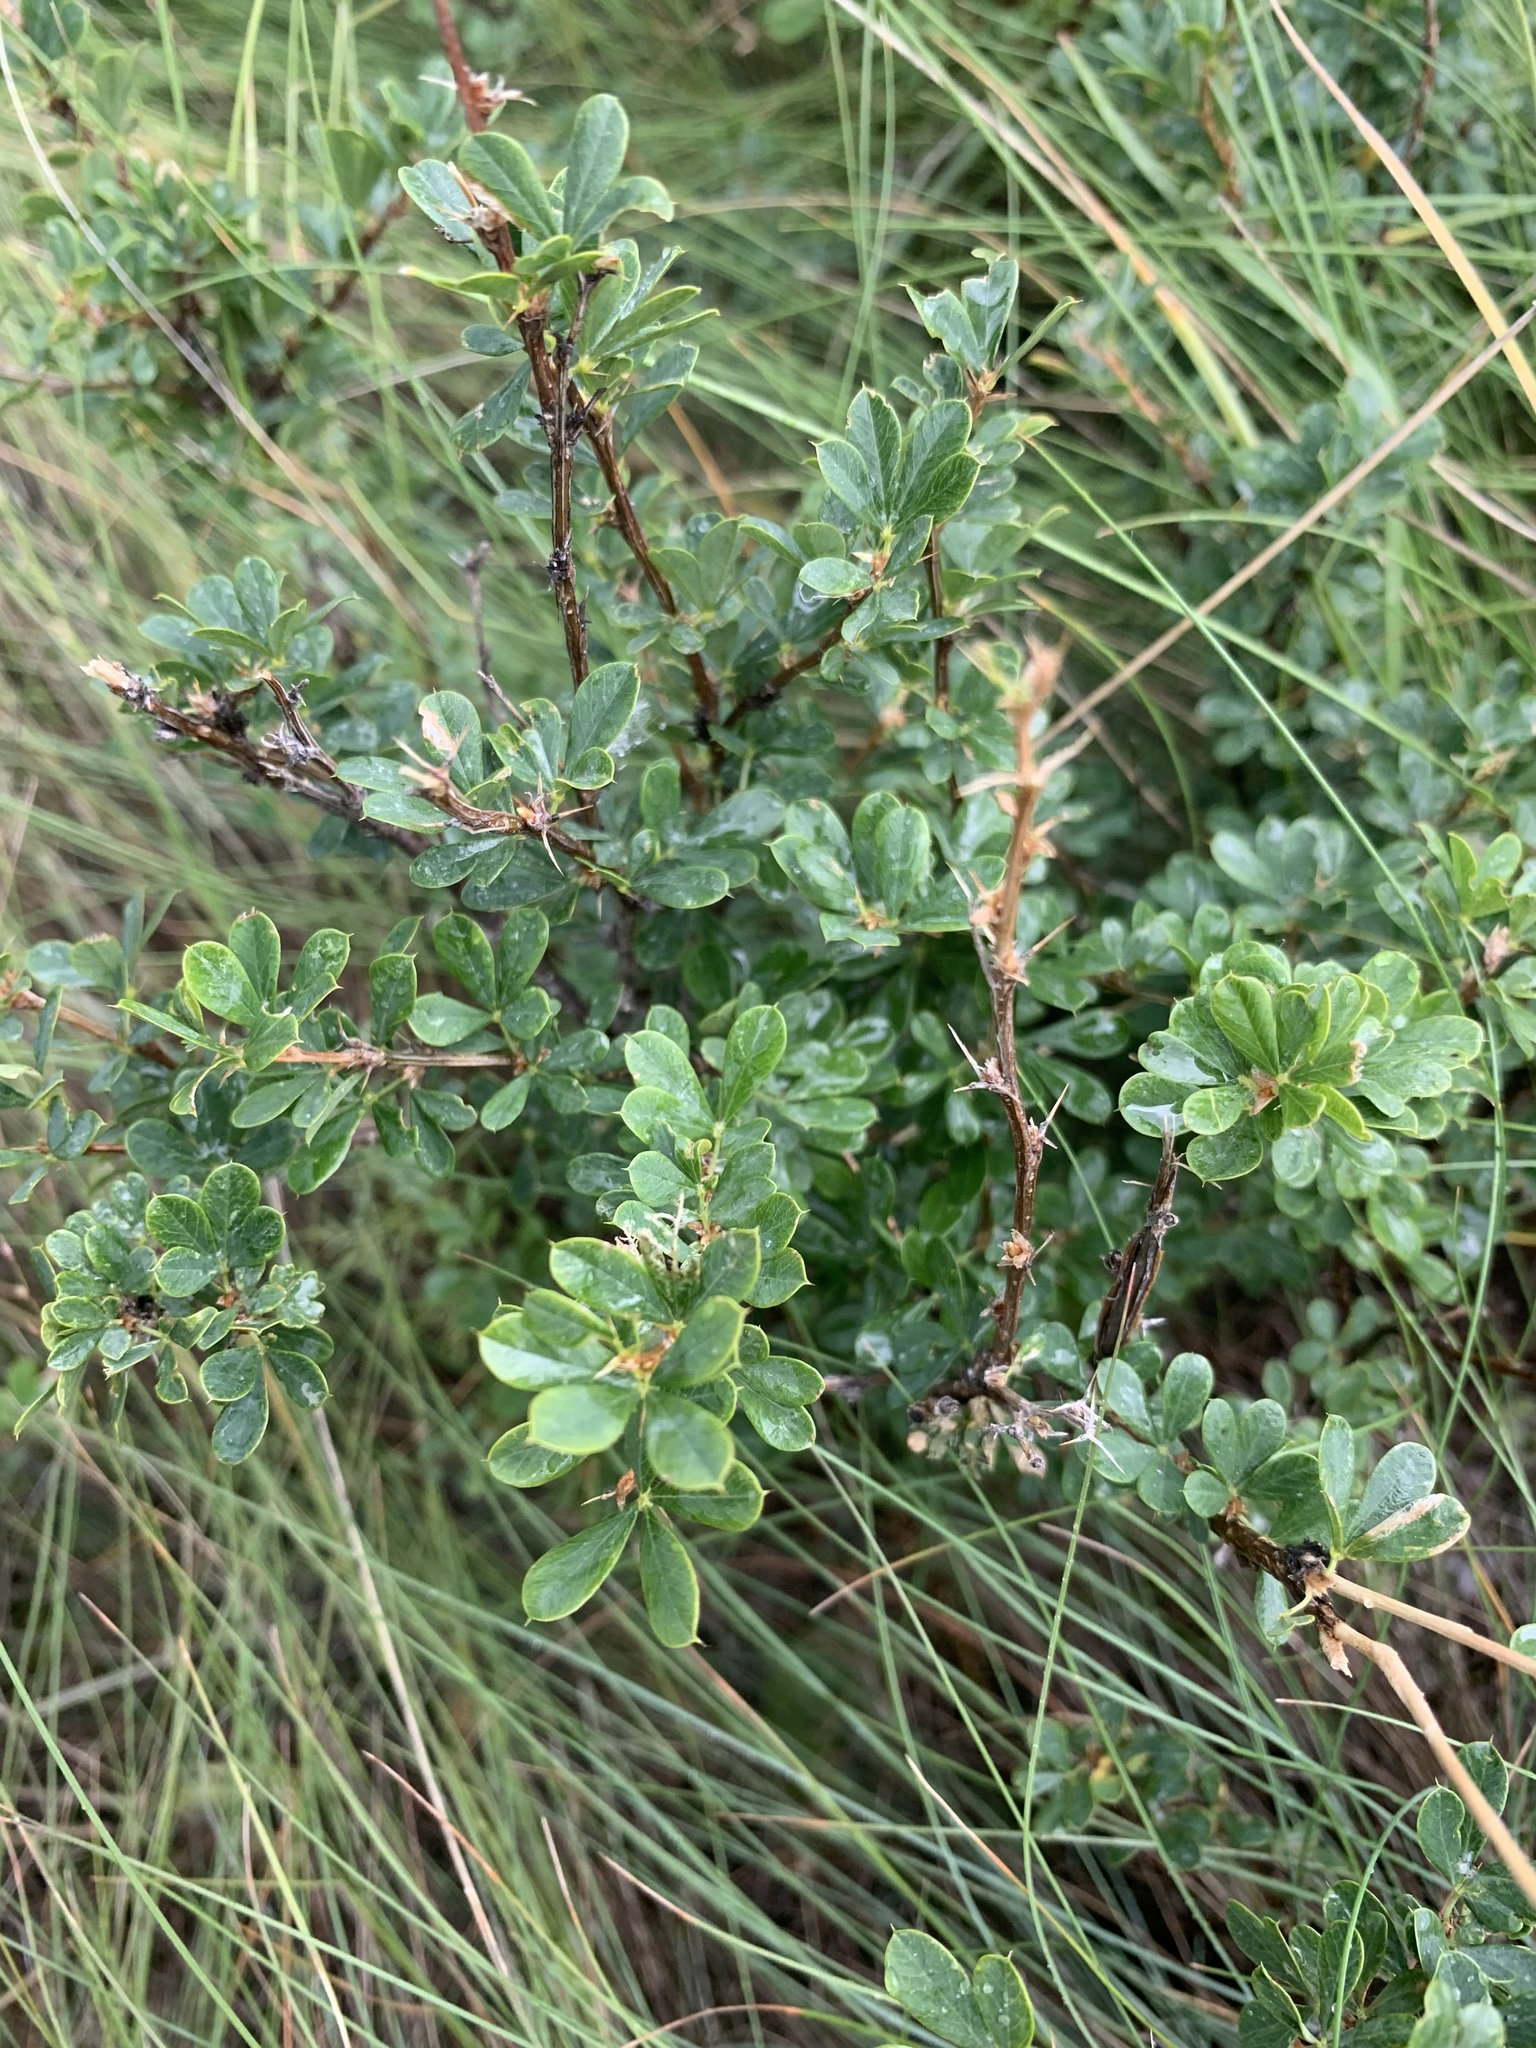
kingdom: Plantae
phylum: Tracheophyta
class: Magnoliopsida
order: Fabales
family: Fabaceae
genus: Caragana
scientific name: Caragana frutex
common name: Russian peashrub
